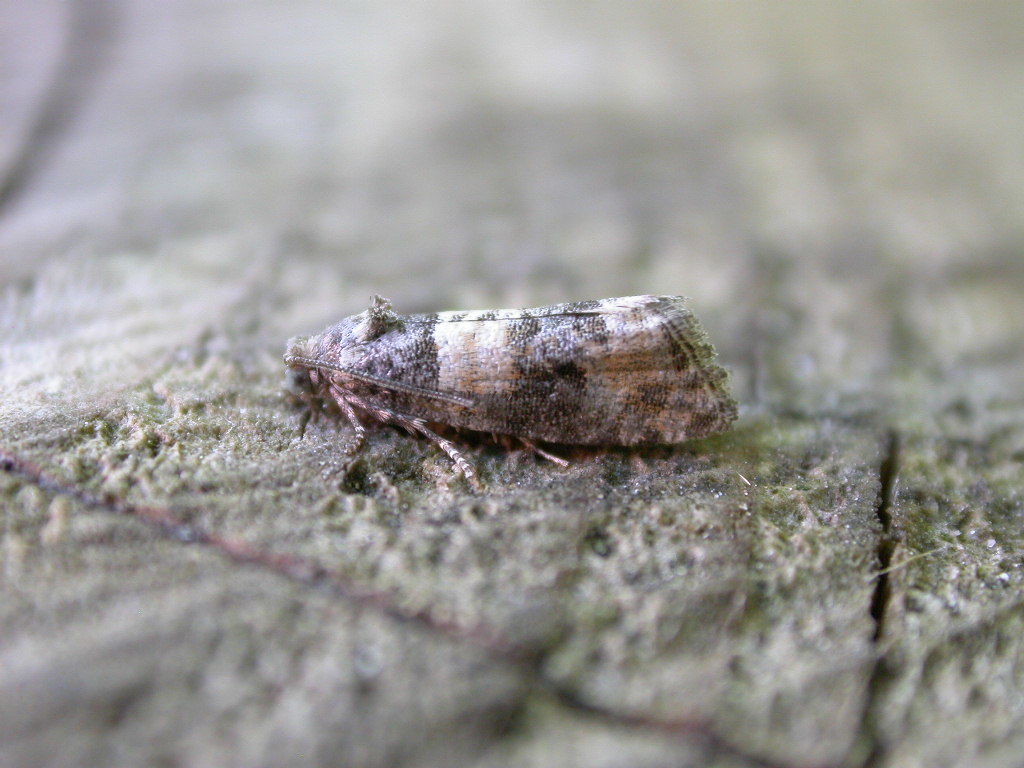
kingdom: Animalia
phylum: Arthropoda
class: Insecta
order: Lepidoptera
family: Tortricidae
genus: Piniphila
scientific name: Piniphila bifasciana
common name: Pine marble
